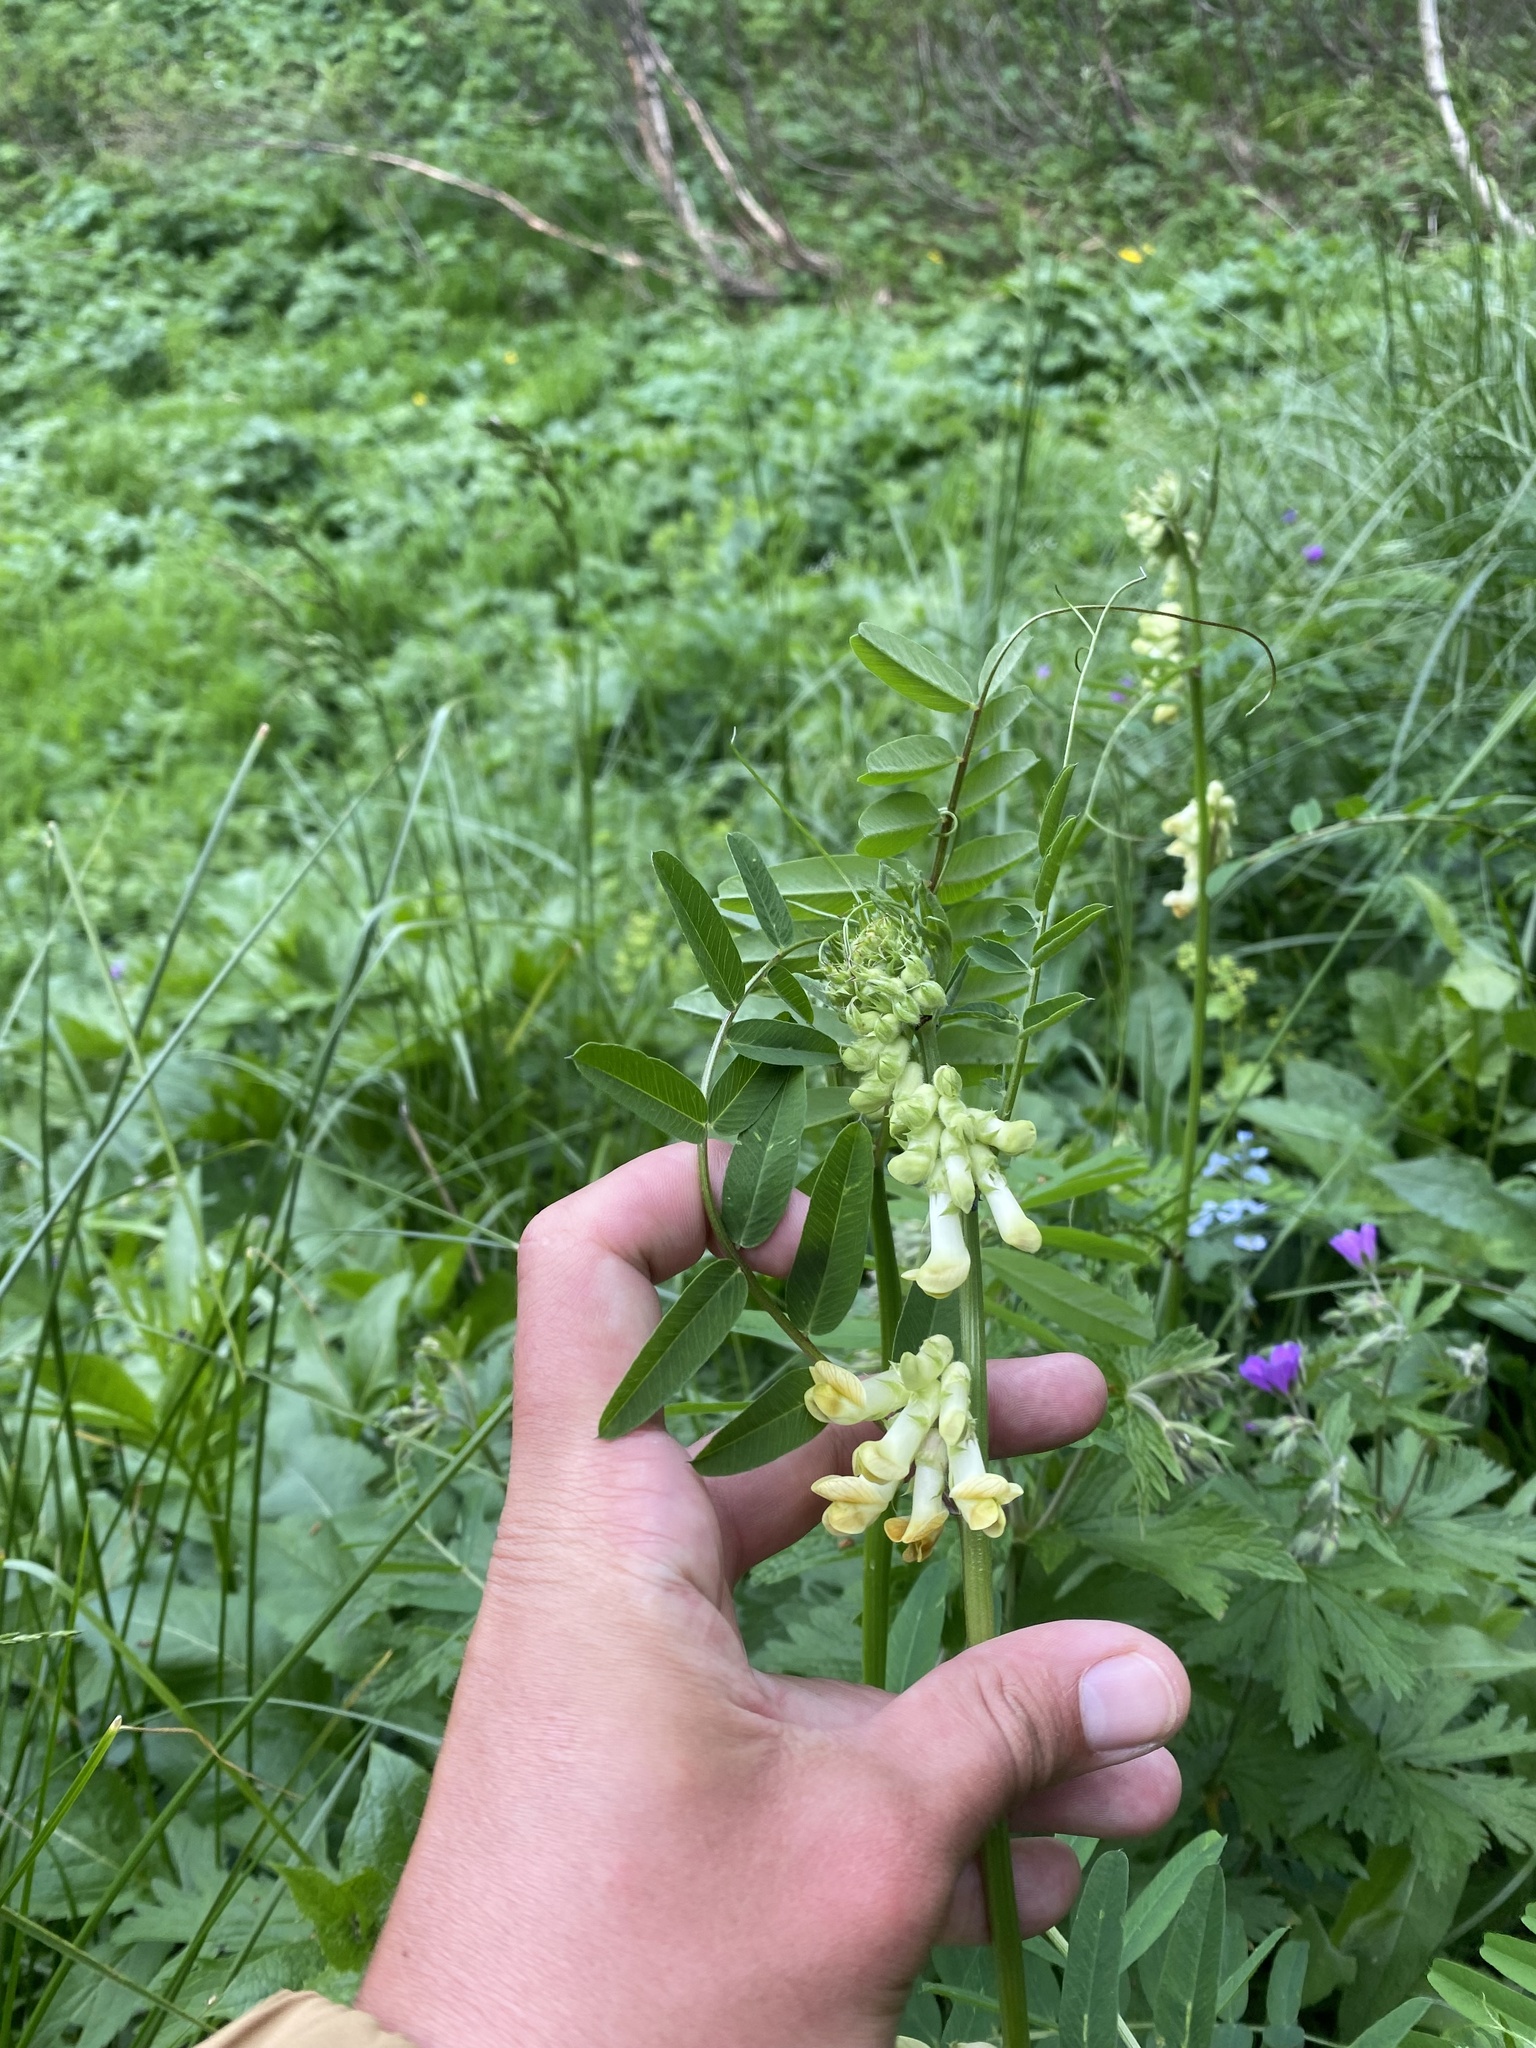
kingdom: Plantae
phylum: Tracheophyta
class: Magnoliopsida
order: Fabales
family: Fabaceae
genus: Vicia
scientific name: Vicia balansae
